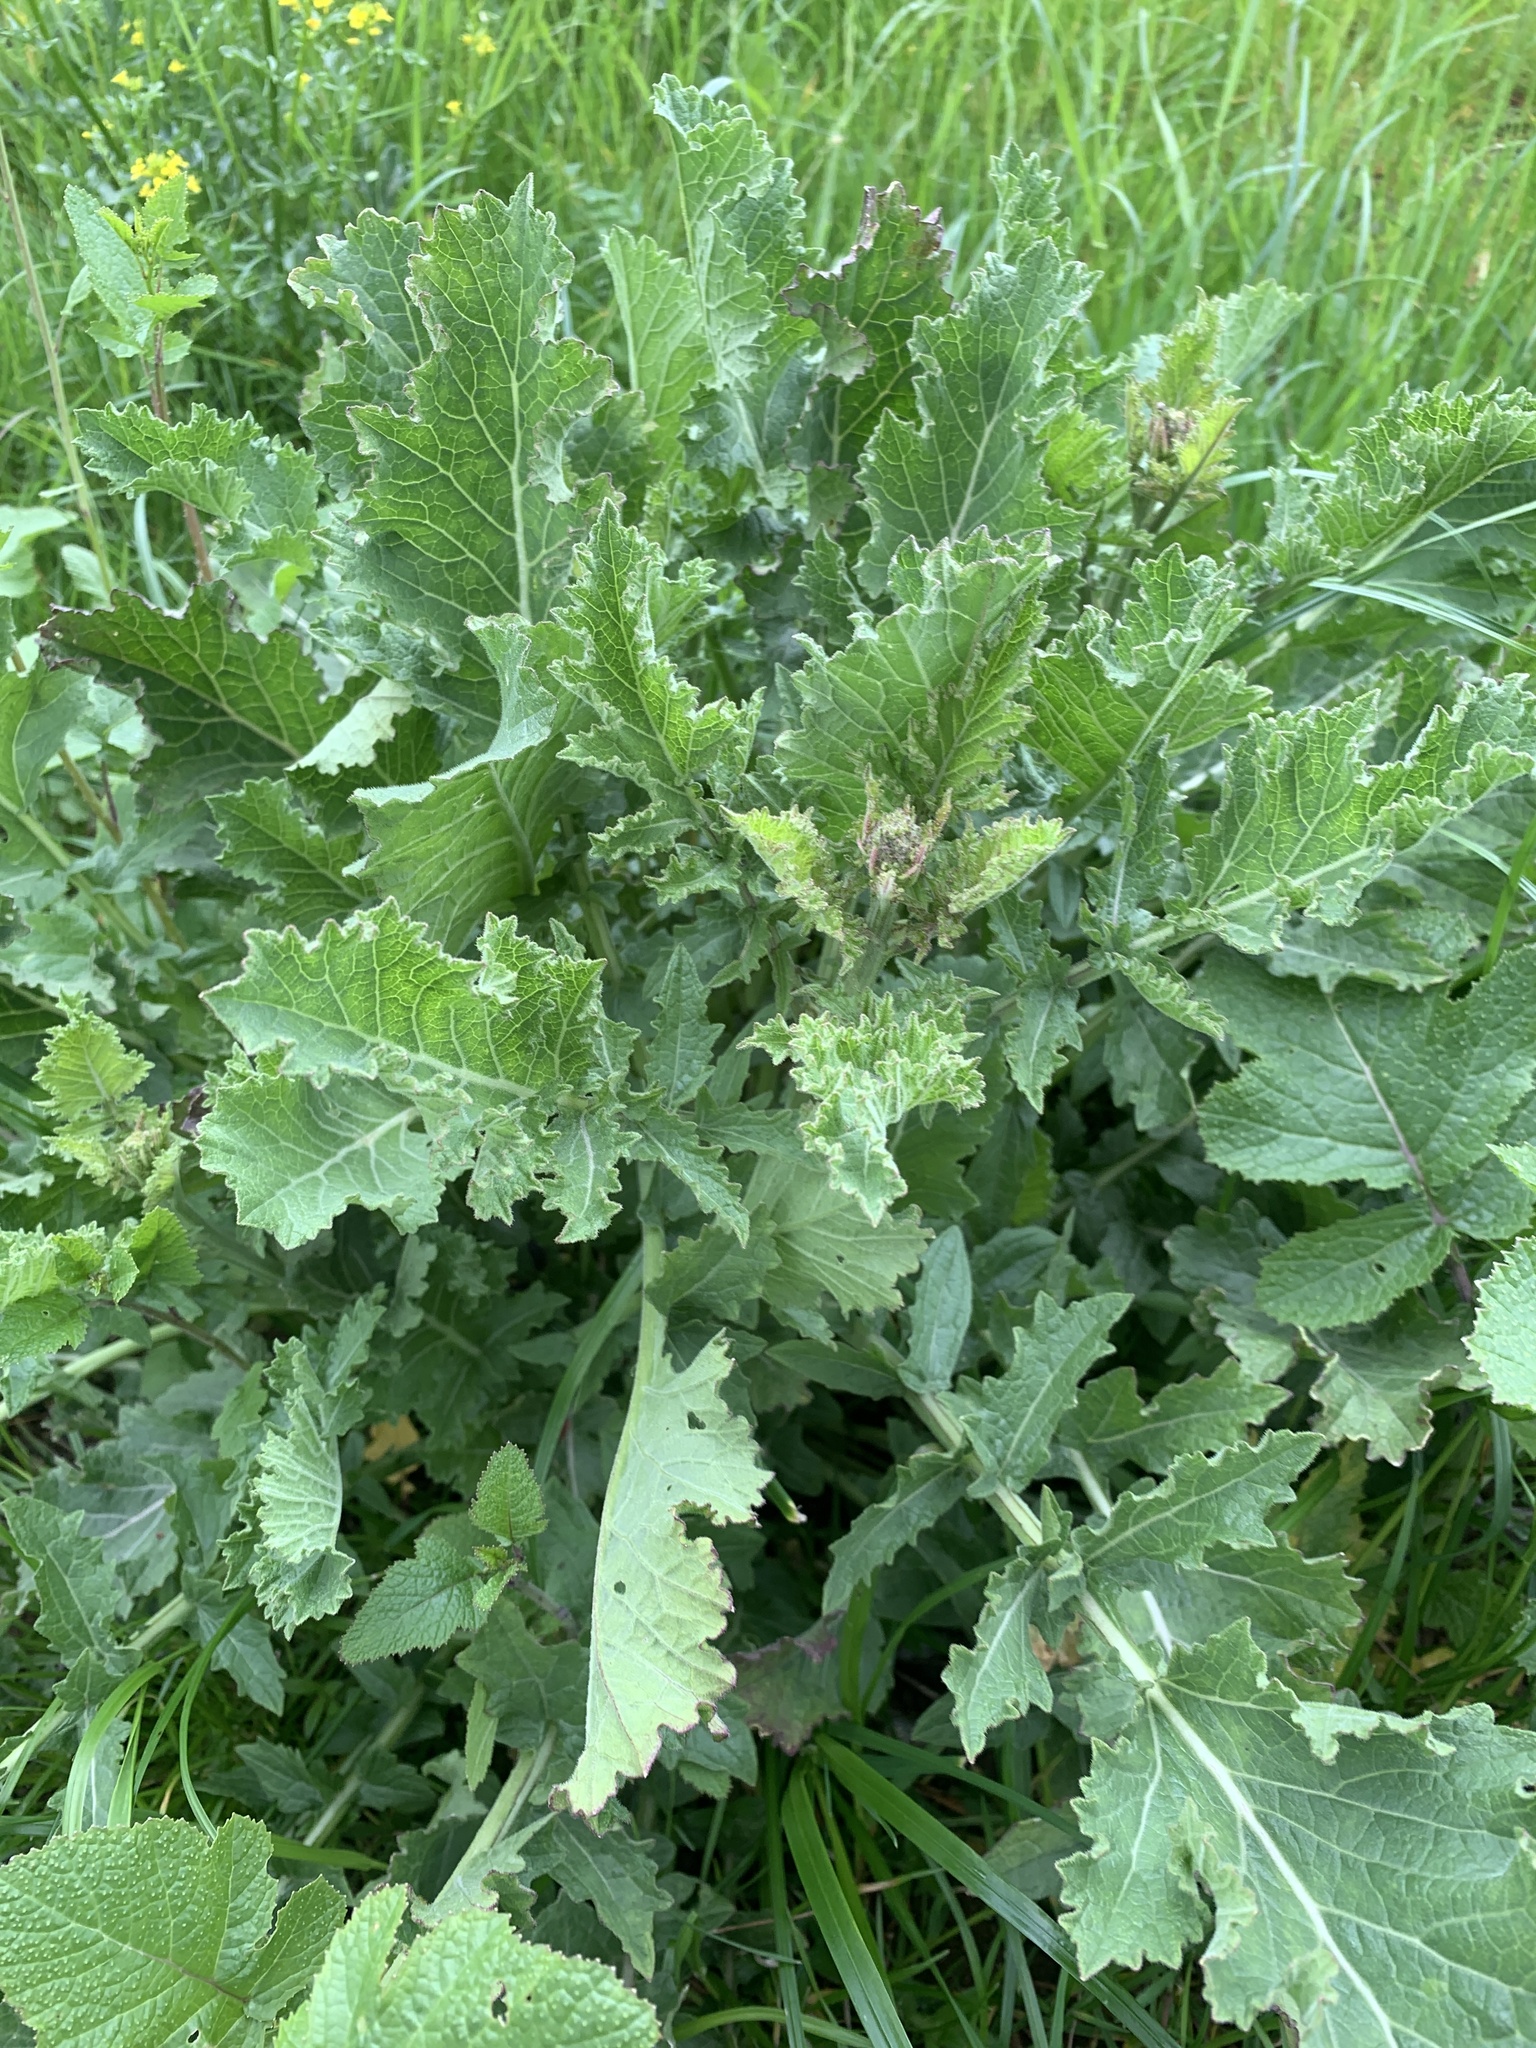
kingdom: Plantae
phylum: Tracheophyta
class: Magnoliopsida
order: Brassicales
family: Brassicaceae
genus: Brassica
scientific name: Brassica rapa
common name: Field mustard
